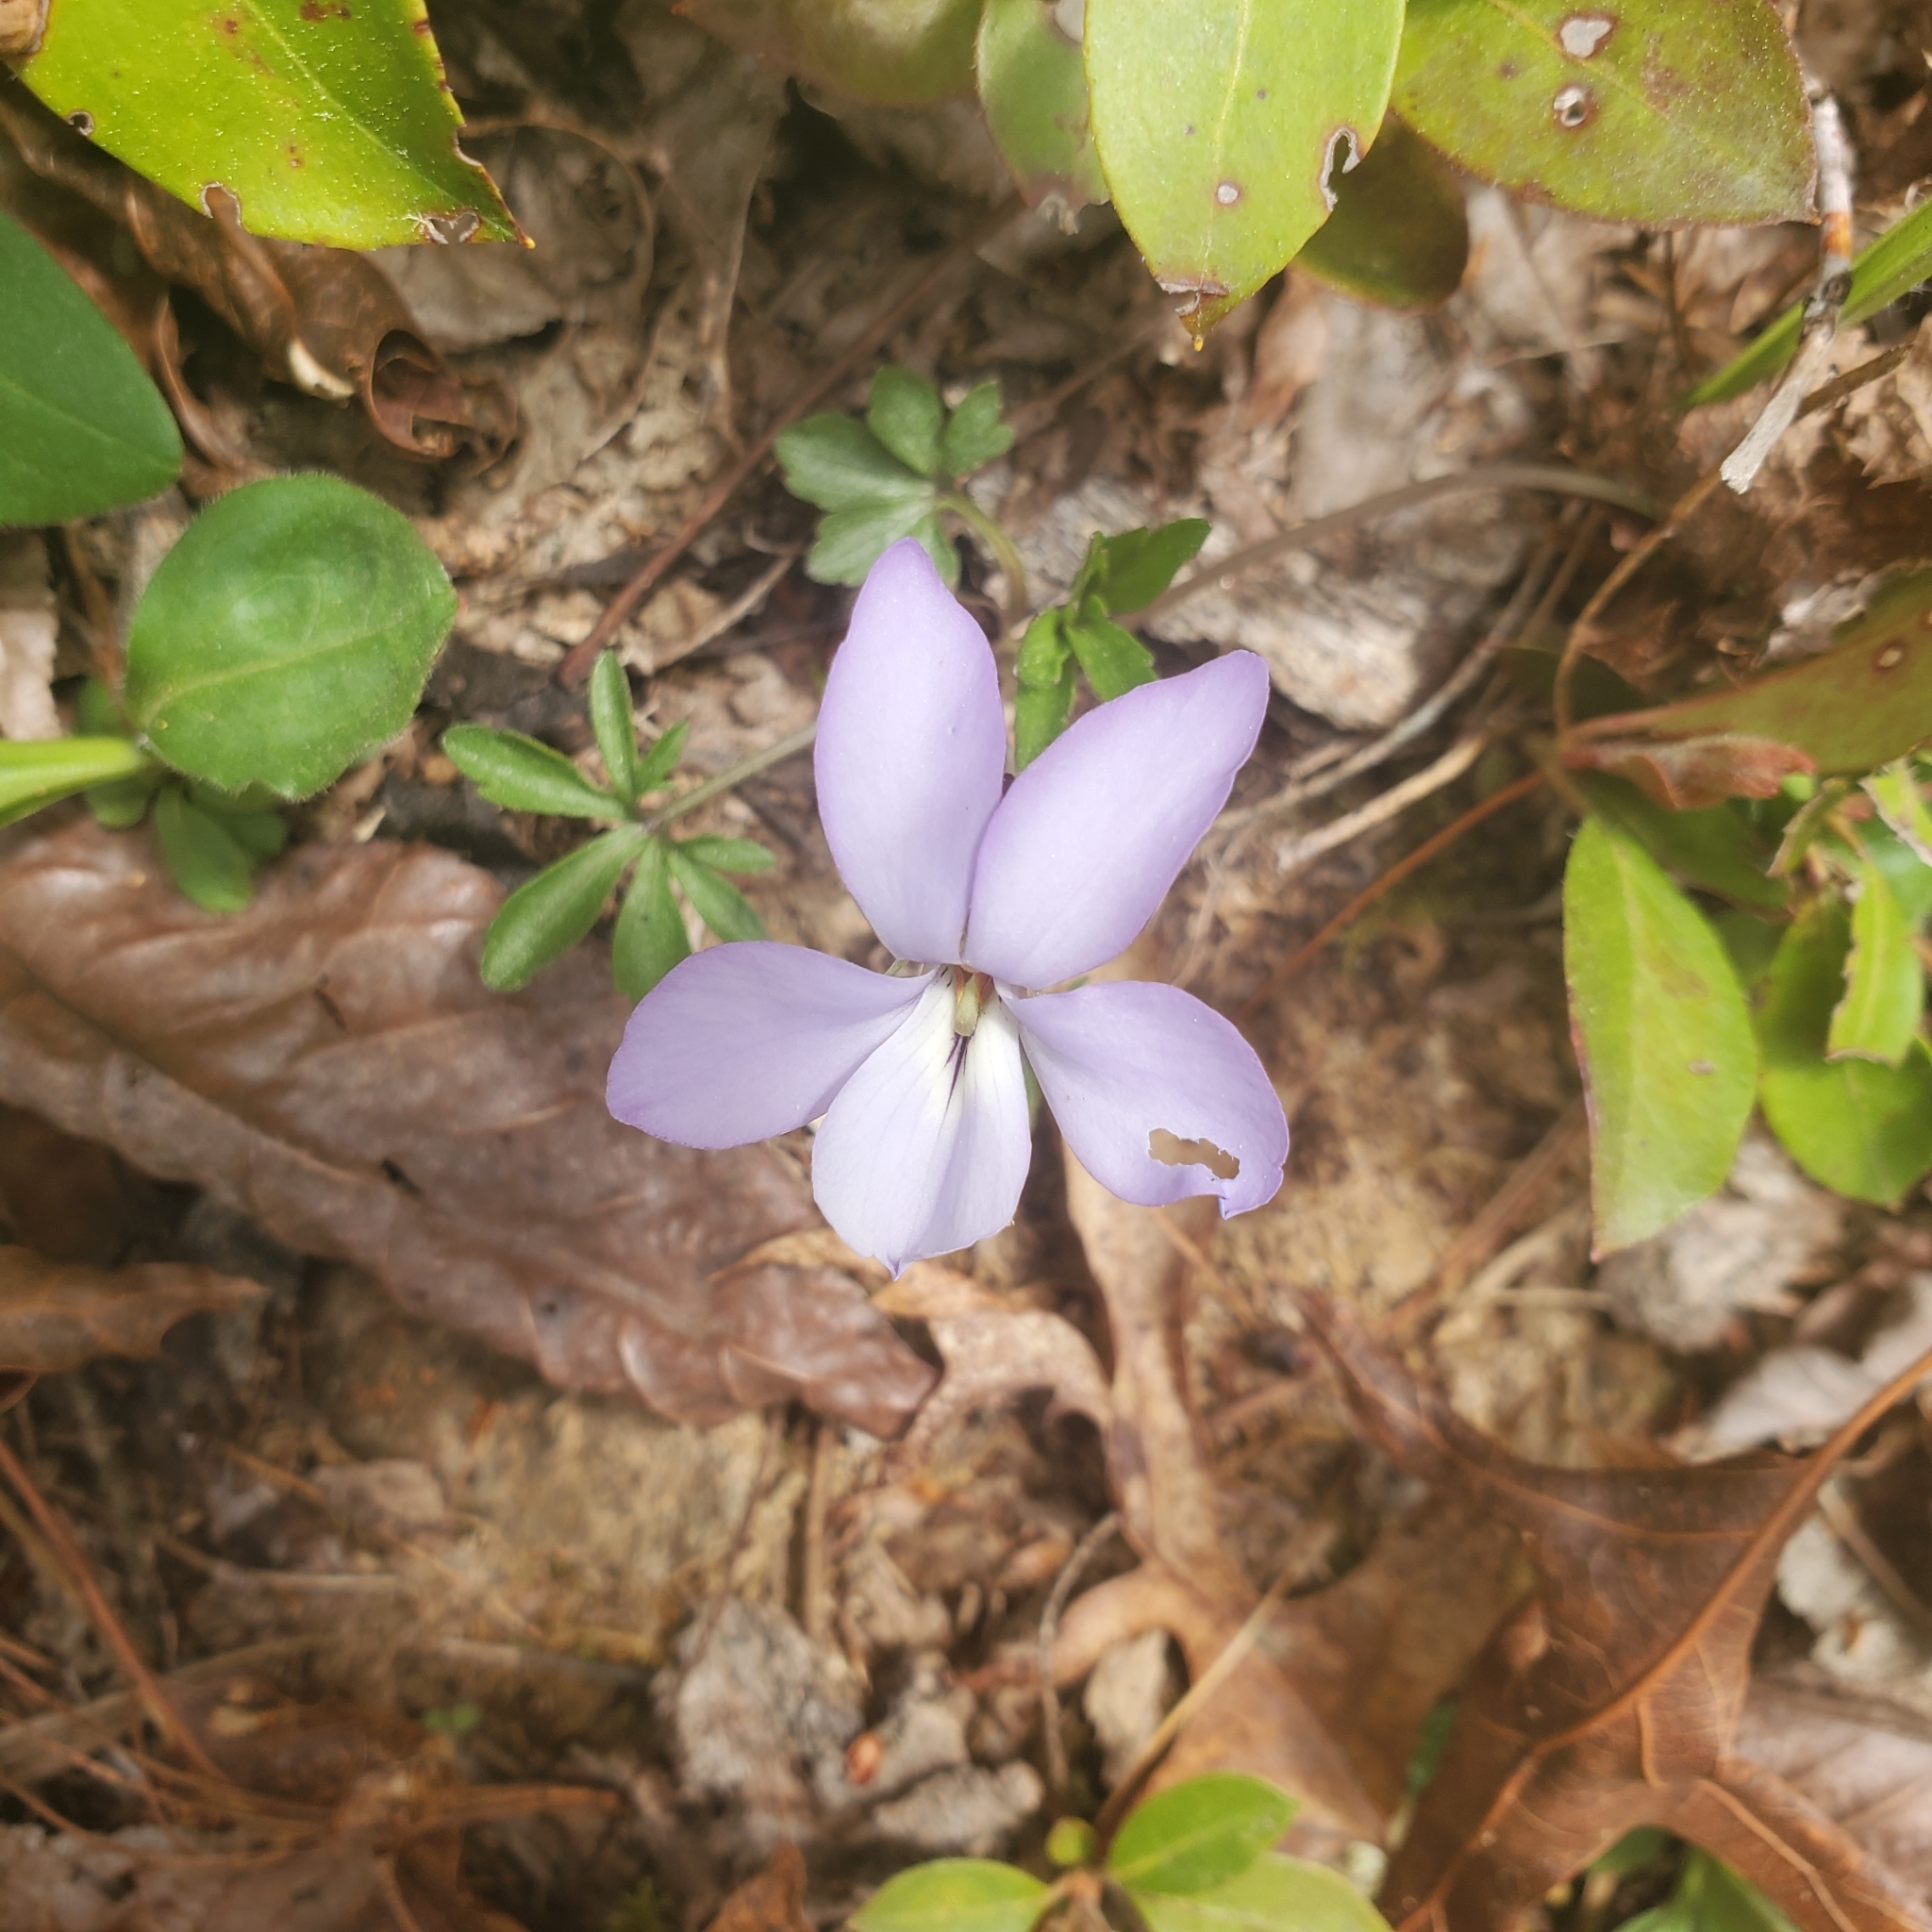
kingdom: Plantae
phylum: Tracheophyta
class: Magnoliopsida
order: Malpighiales
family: Violaceae
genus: Viola
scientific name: Viola pedata
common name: Pansy violet
